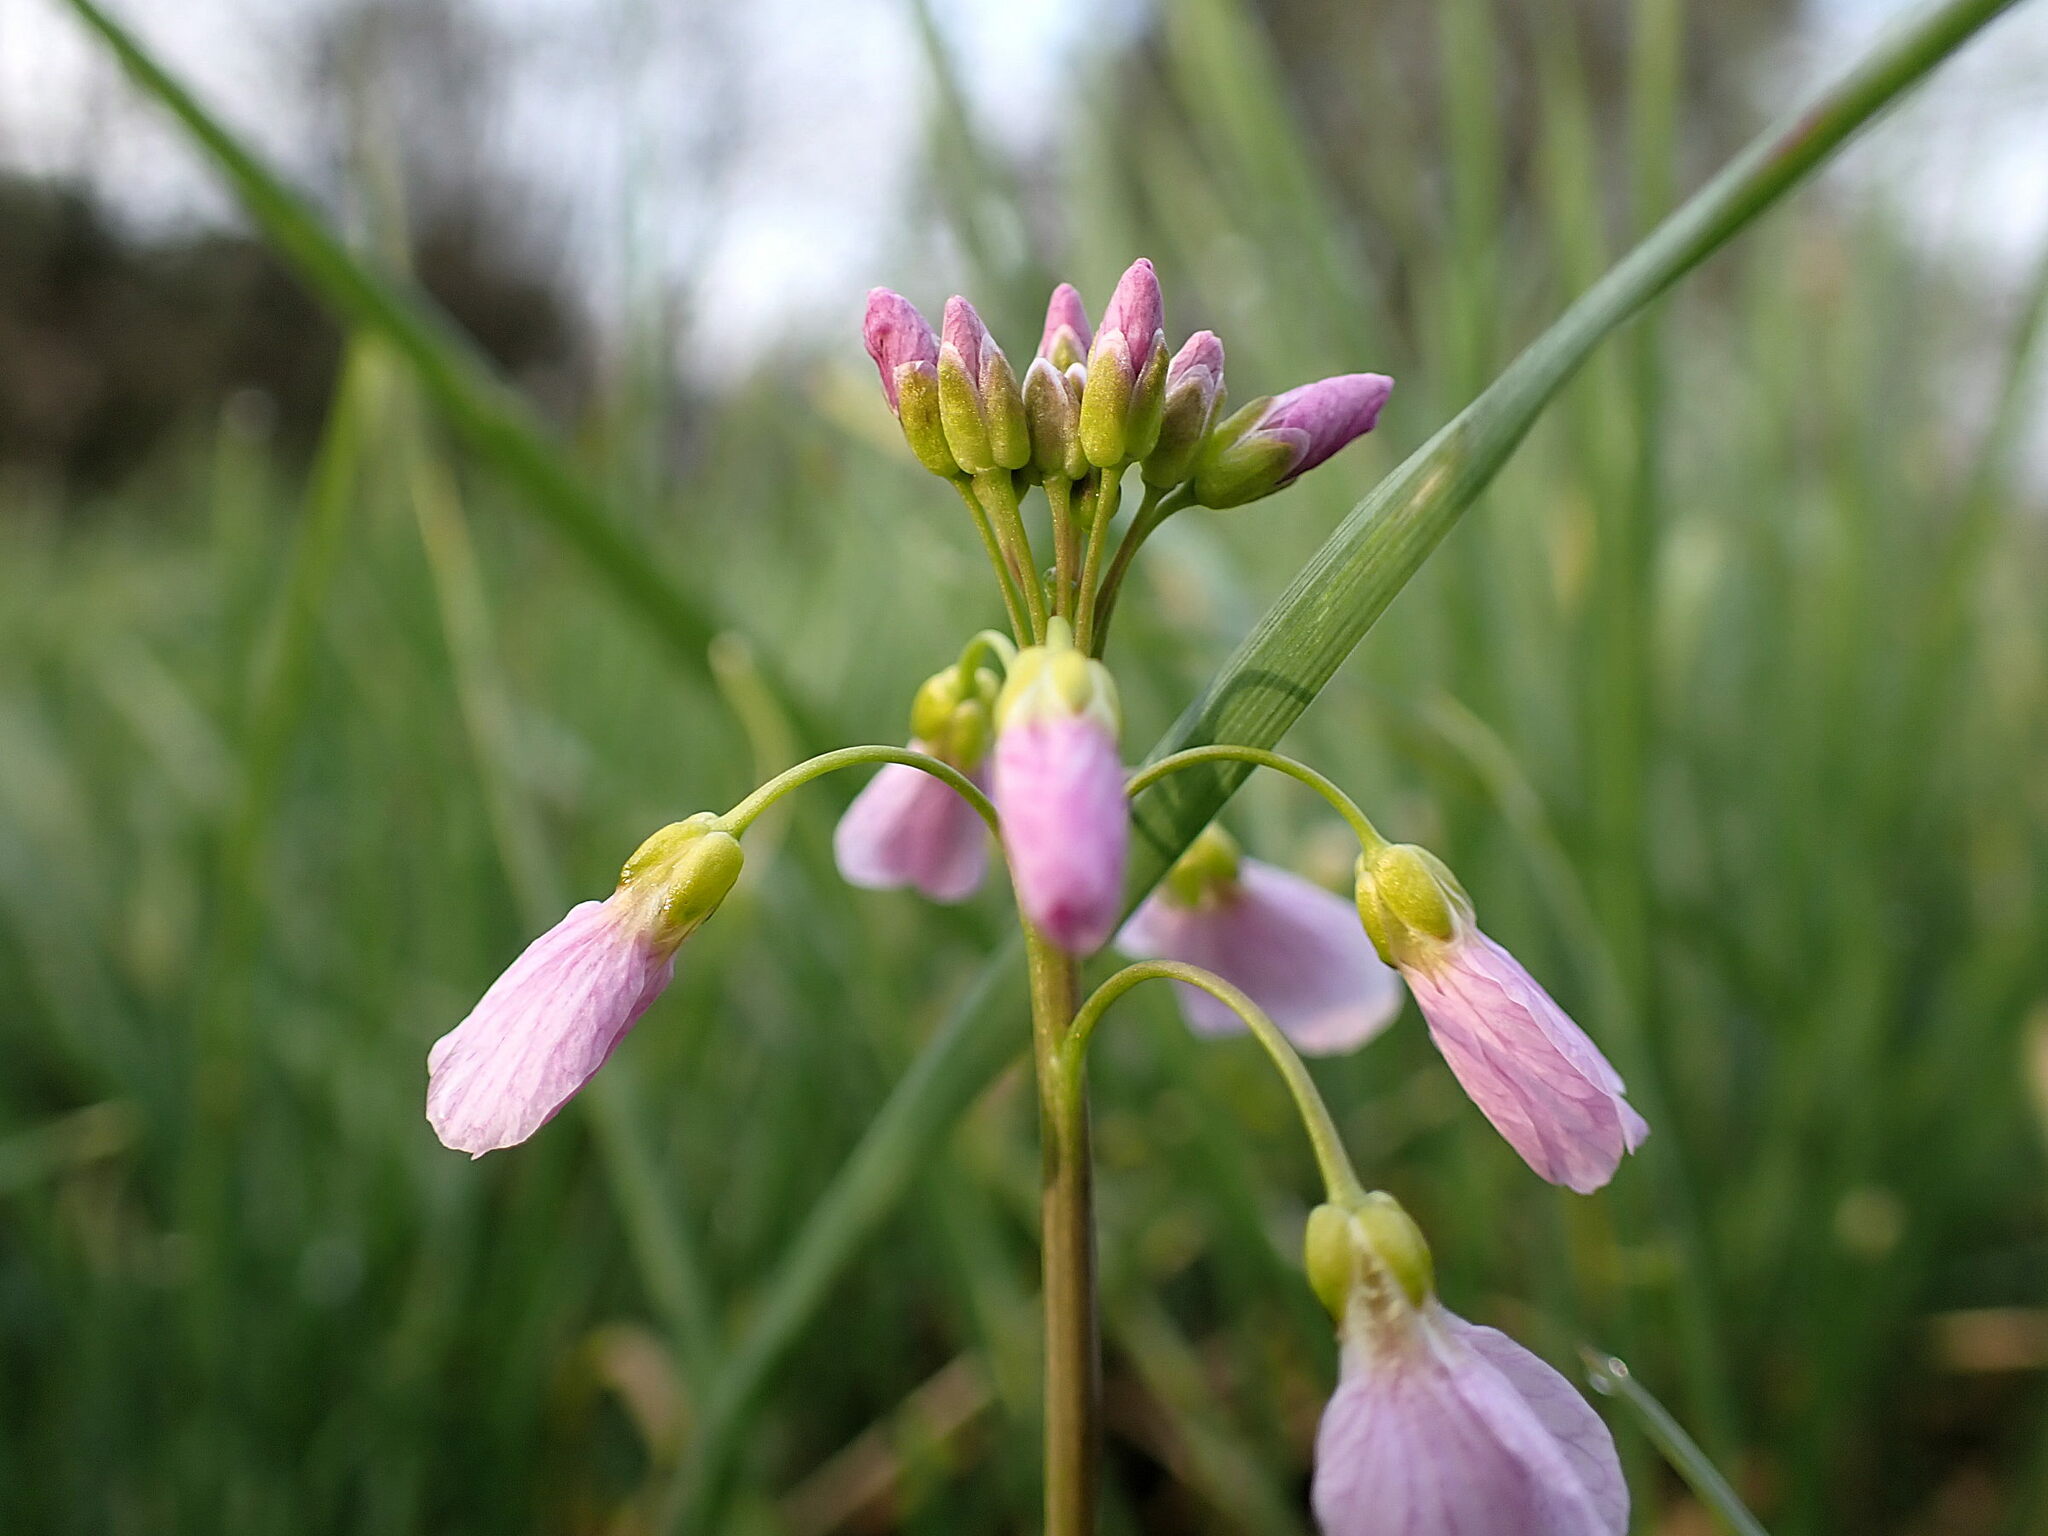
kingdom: Plantae
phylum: Tracheophyta
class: Magnoliopsida
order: Brassicales
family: Brassicaceae
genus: Cardamine
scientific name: Cardamine pratensis
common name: Cuckoo flower
